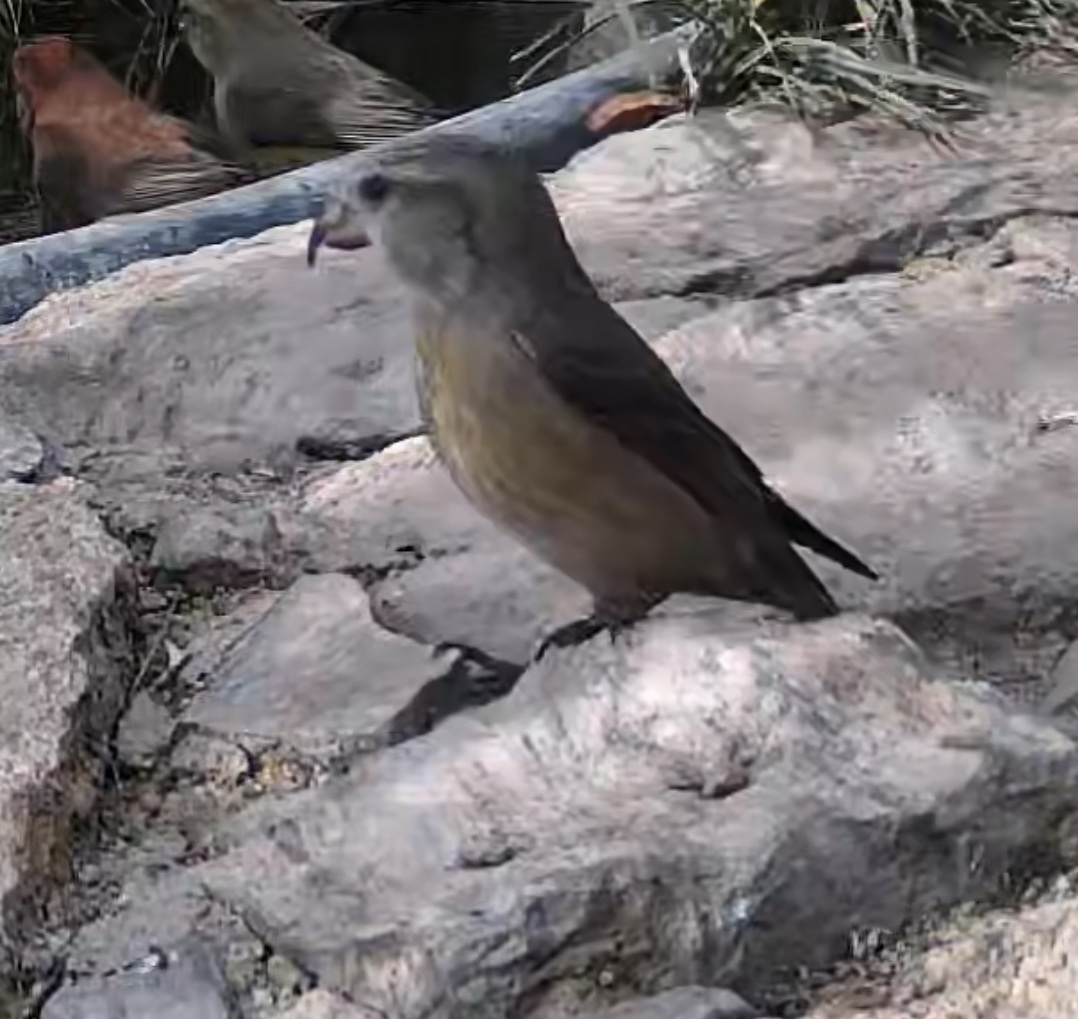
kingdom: Animalia
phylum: Chordata
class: Aves
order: Passeriformes
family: Fringillidae
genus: Loxia
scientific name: Loxia curvirostra
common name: Red crossbill
